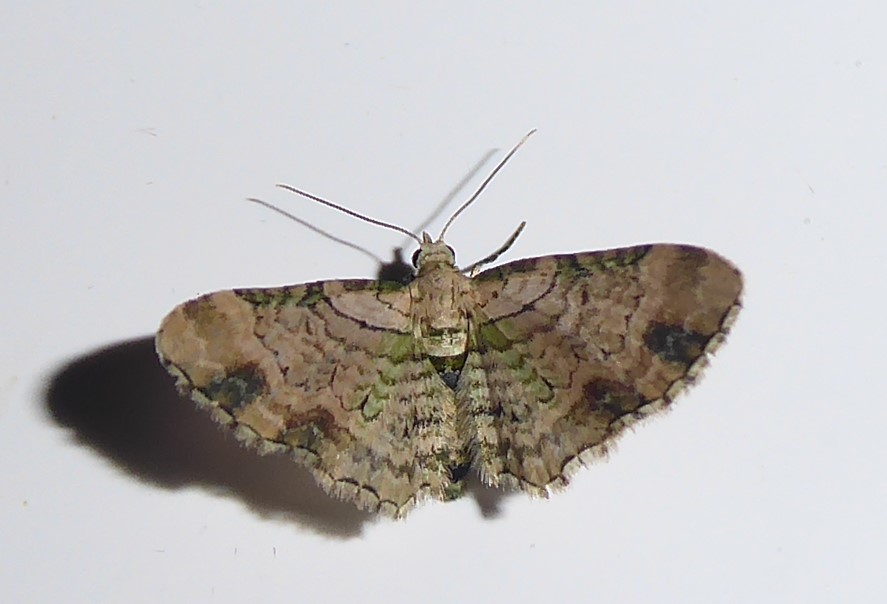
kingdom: Animalia
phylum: Arthropoda
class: Insecta
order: Lepidoptera
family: Geometridae
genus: Chloroclystis
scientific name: Chloroclystis
